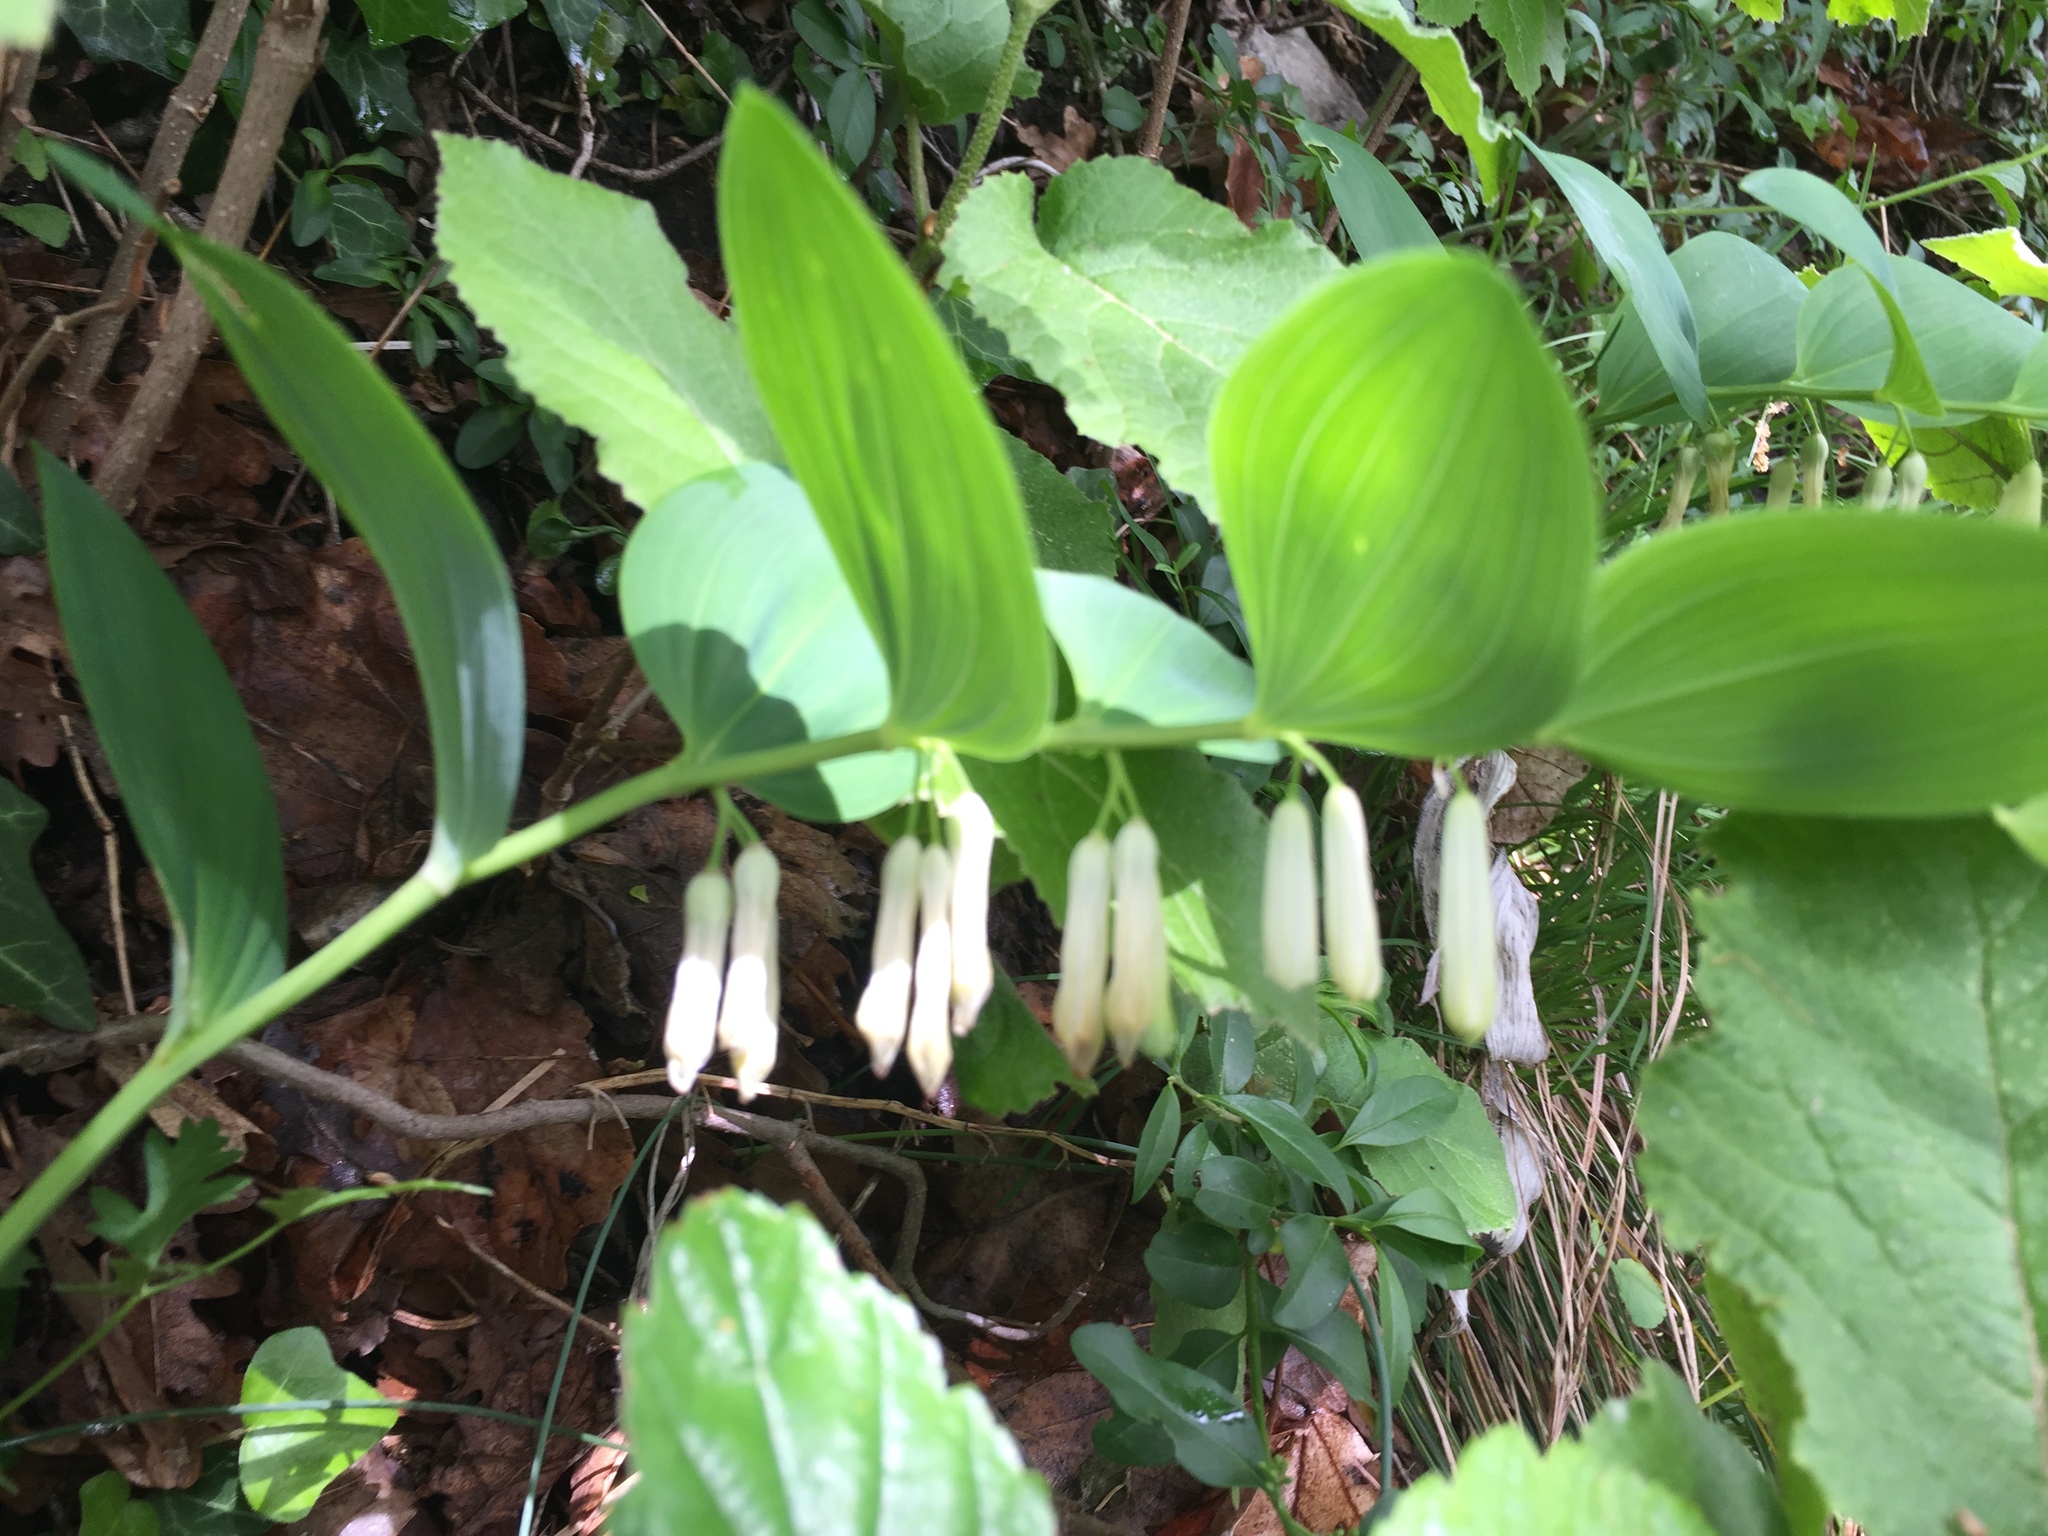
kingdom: Plantae
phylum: Tracheophyta
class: Liliopsida
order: Asparagales
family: Asparagaceae
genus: Polygonatum
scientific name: Polygonatum multiflorum
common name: Solomon's-seal
